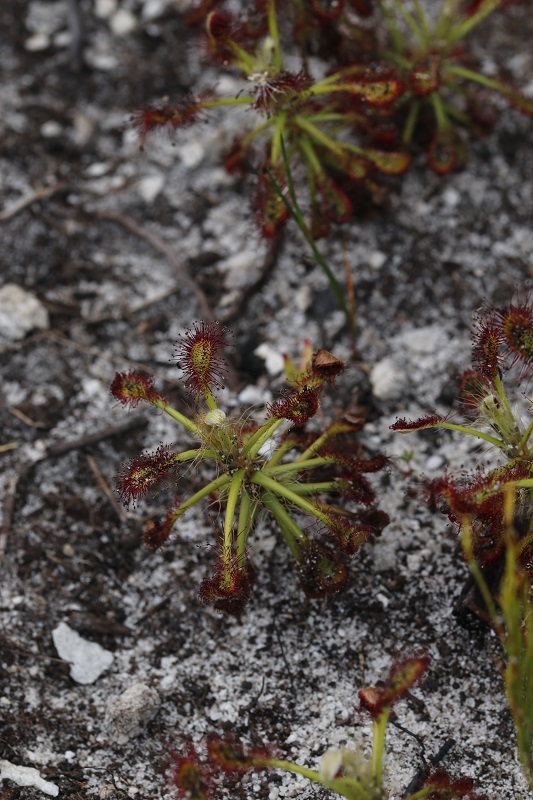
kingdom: Plantae
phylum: Tracheophyta
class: Magnoliopsida
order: Caryophyllales
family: Droseraceae
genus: Drosera
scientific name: Drosera glabripes
